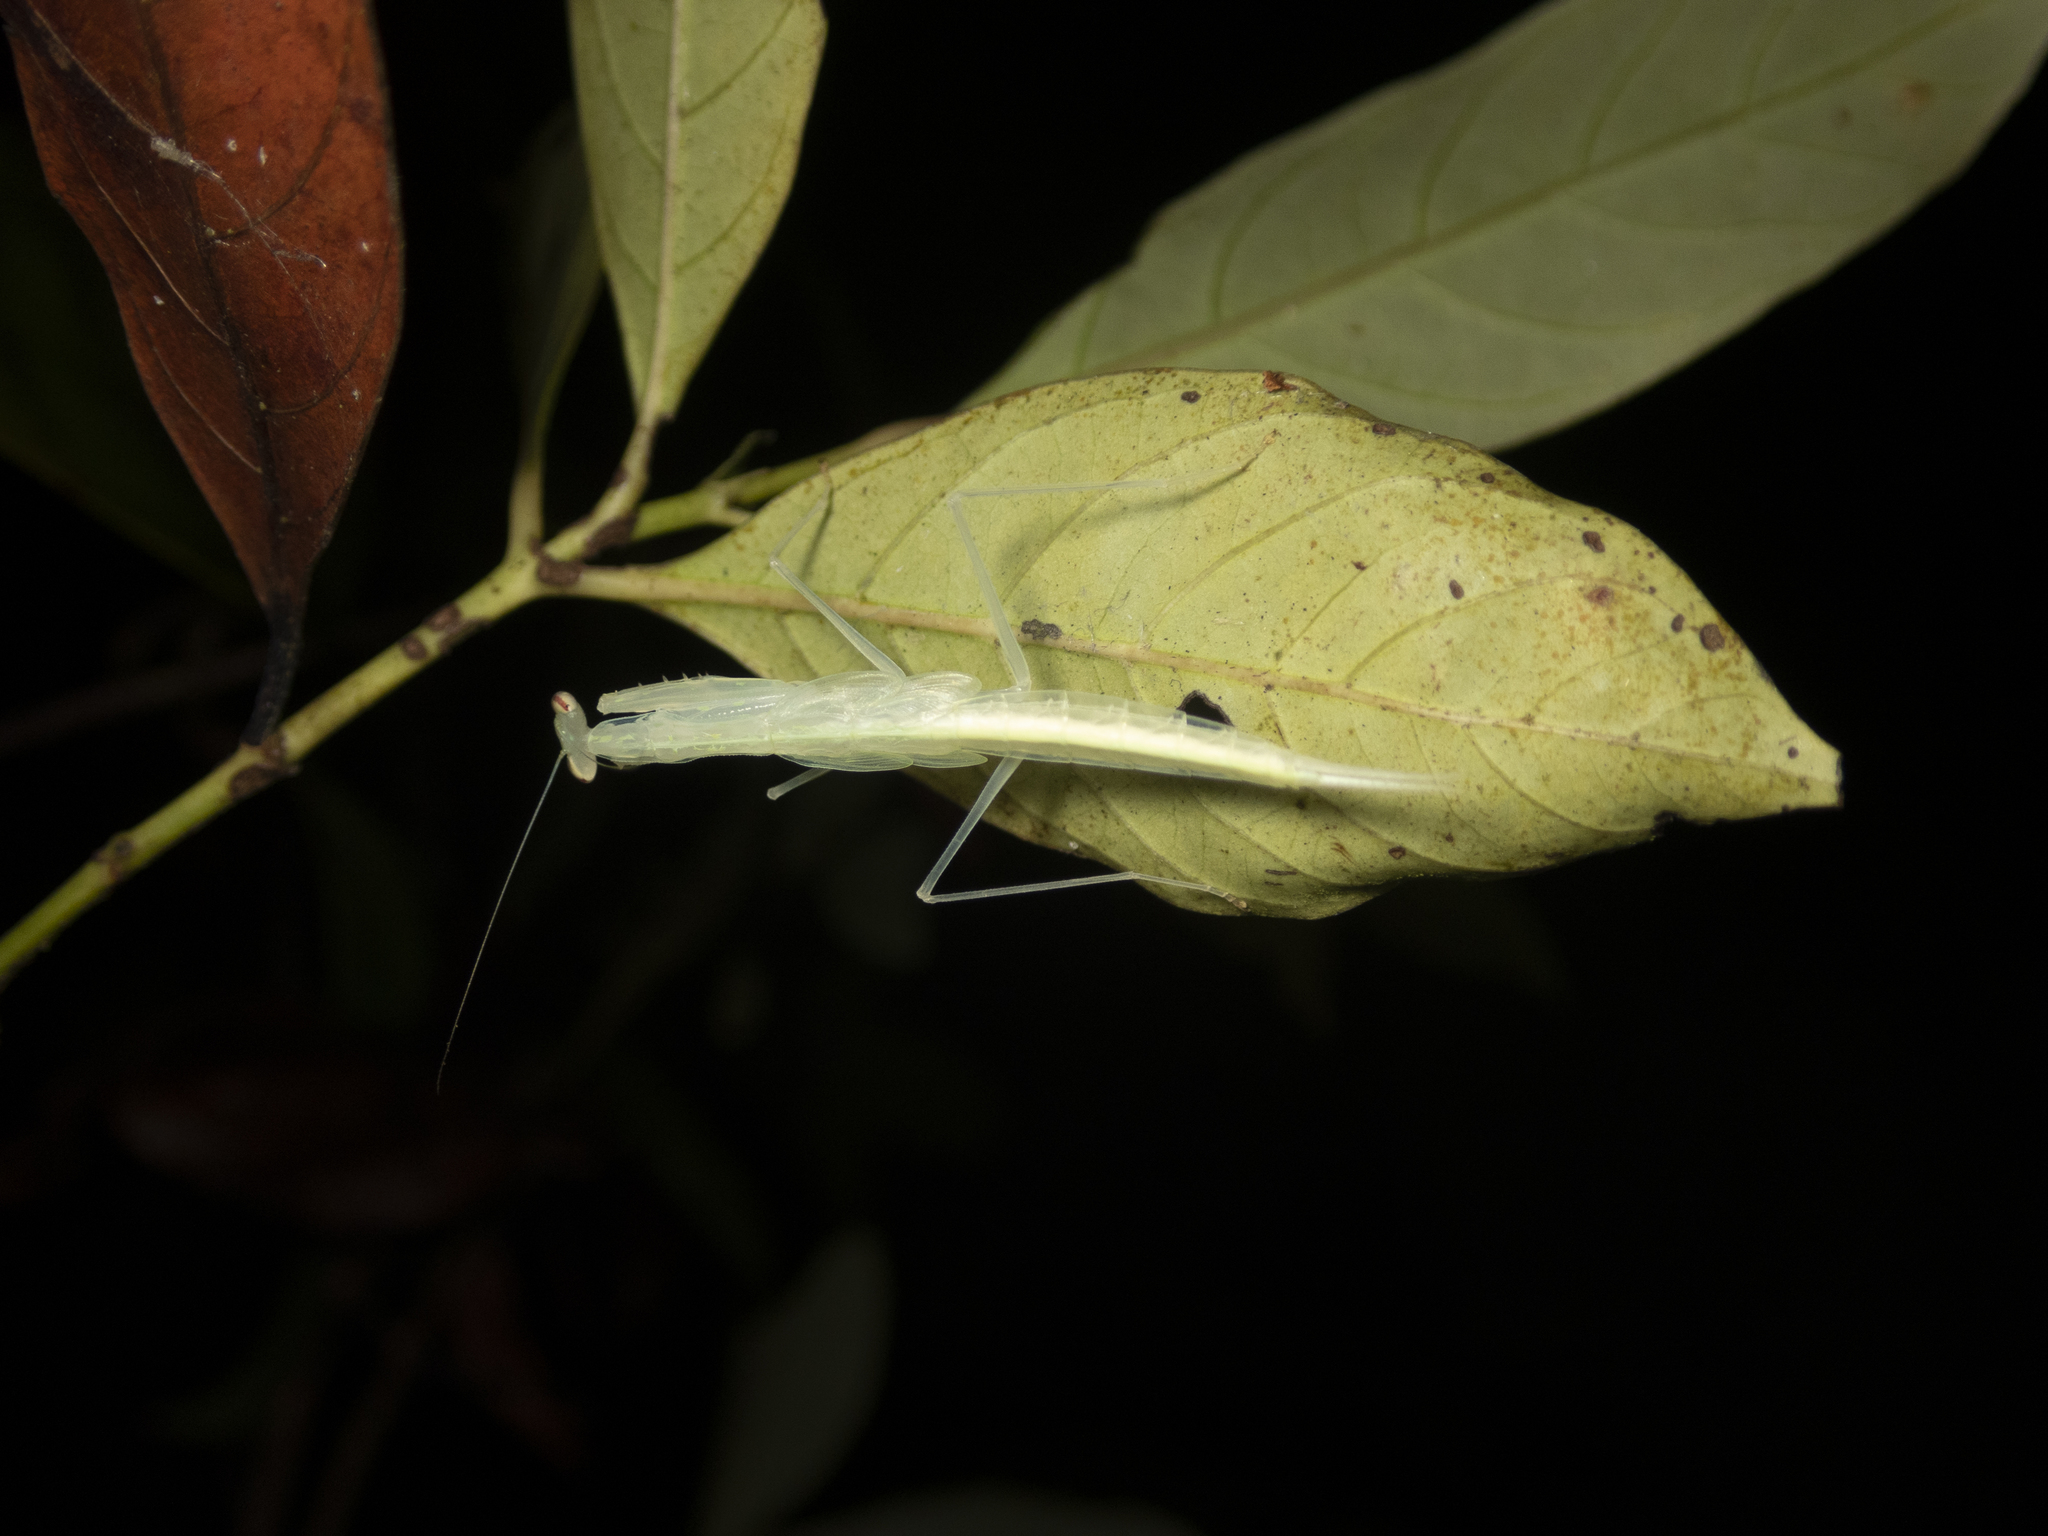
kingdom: Animalia
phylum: Arthropoda
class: Insecta
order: Mantodea
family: Nanomantidae
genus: Sinomantis
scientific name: Sinomantis denticulata
